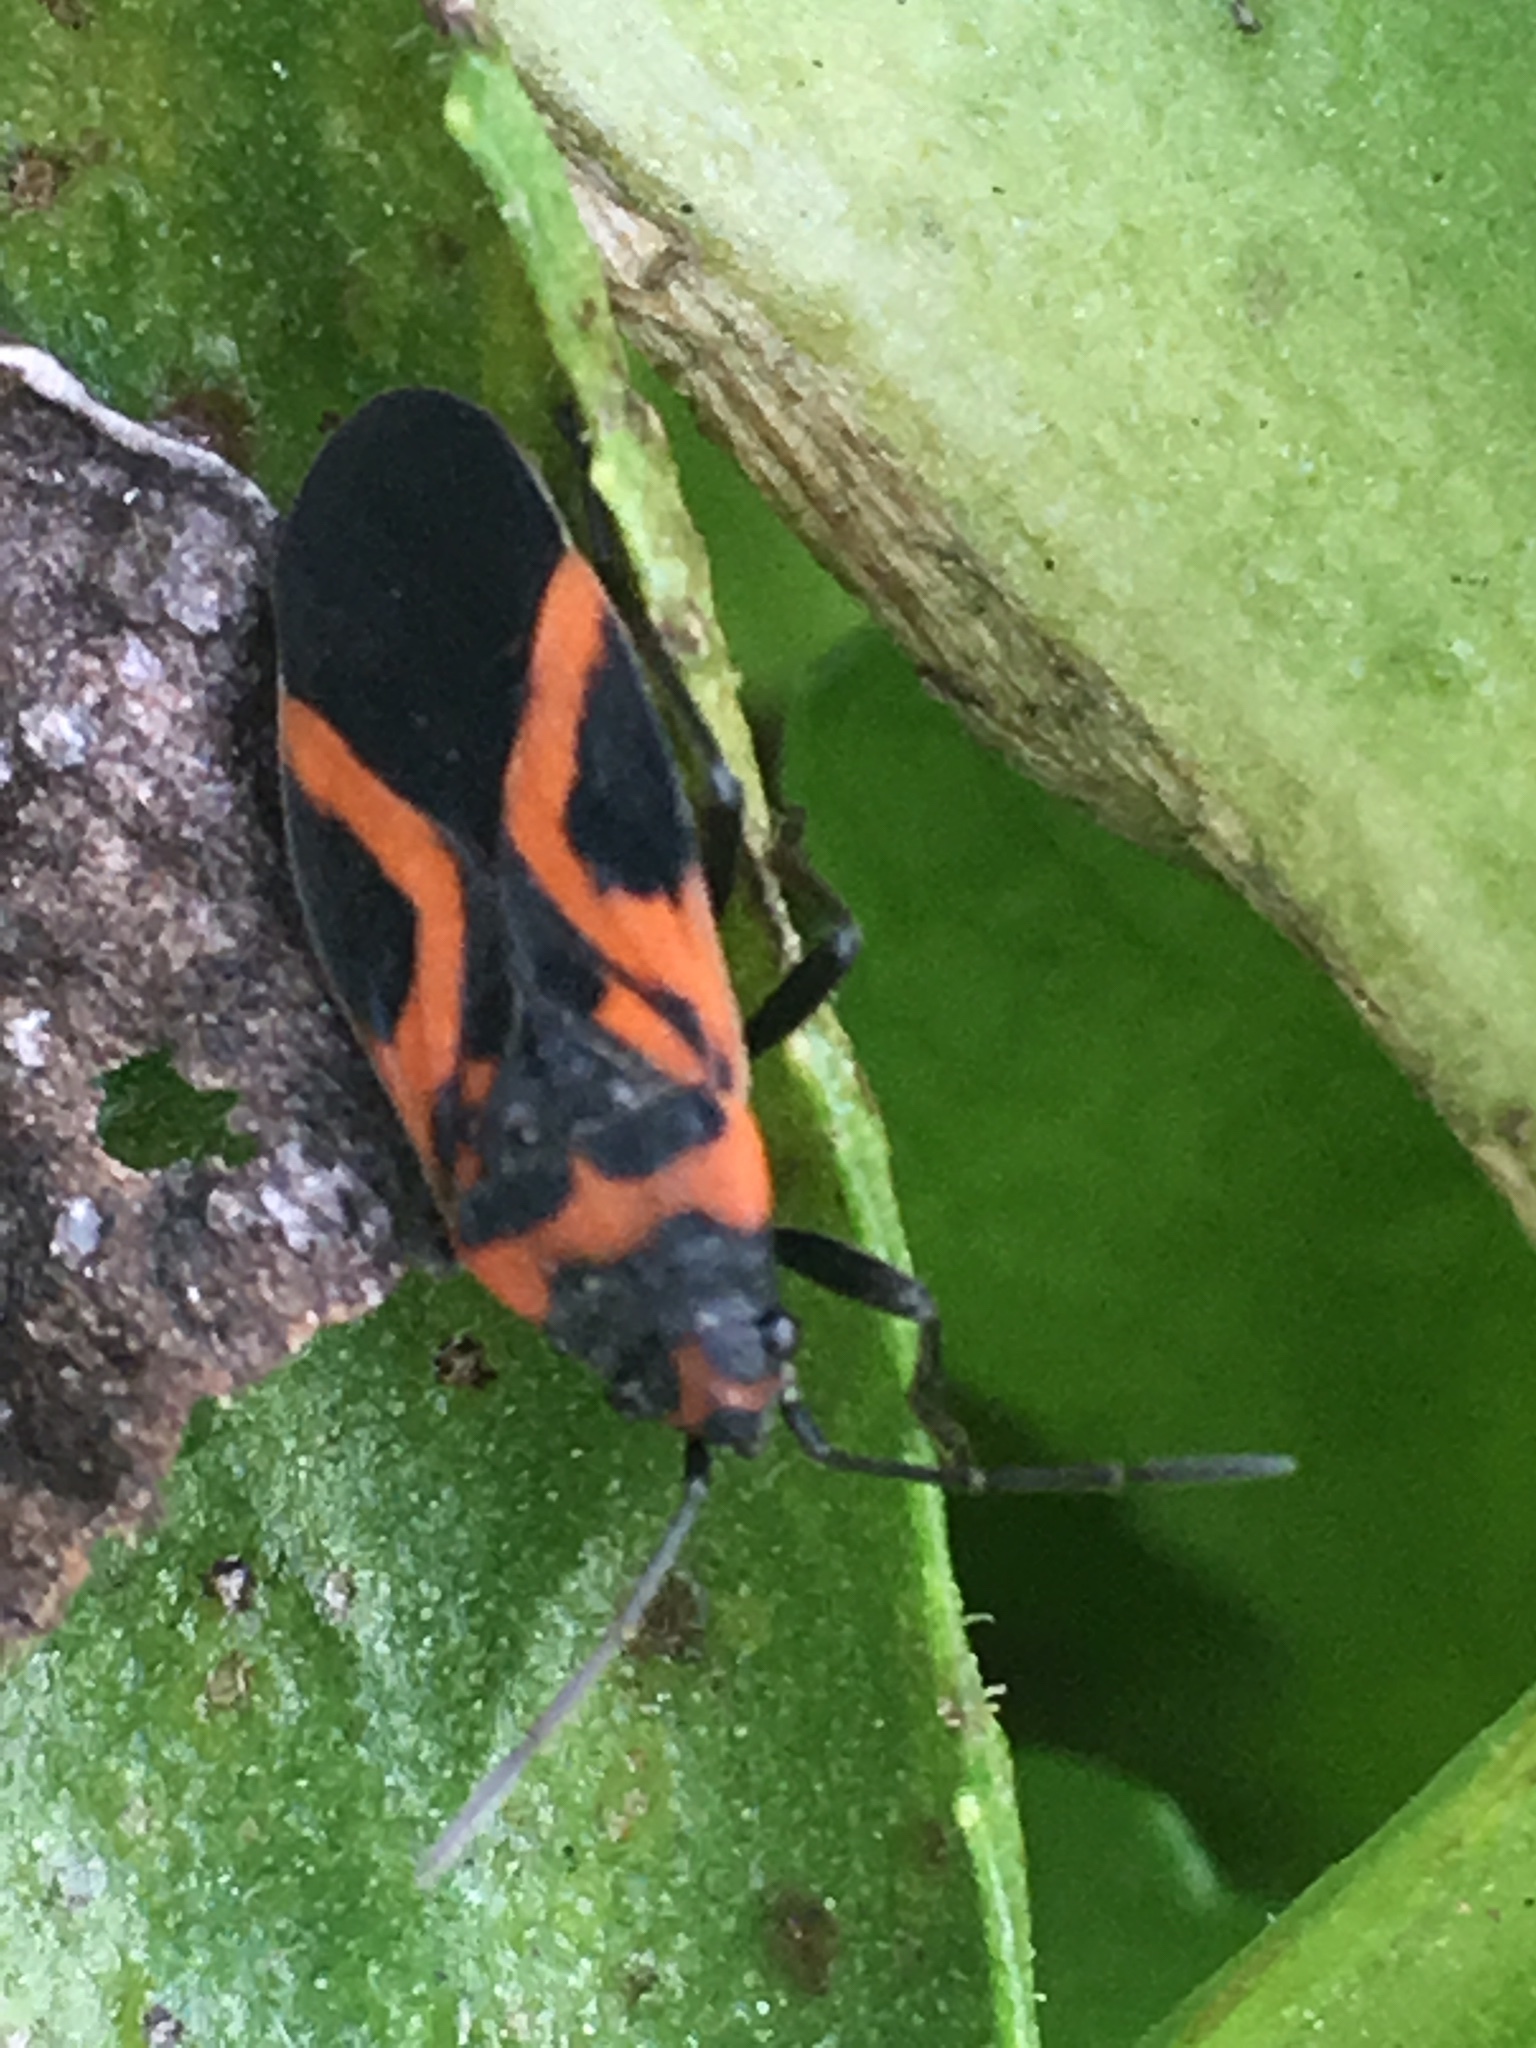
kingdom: Animalia
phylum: Arthropoda
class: Insecta
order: Hemiptera
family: Lygaeidae
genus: Lygaeus
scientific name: Lygaeus turcicus
